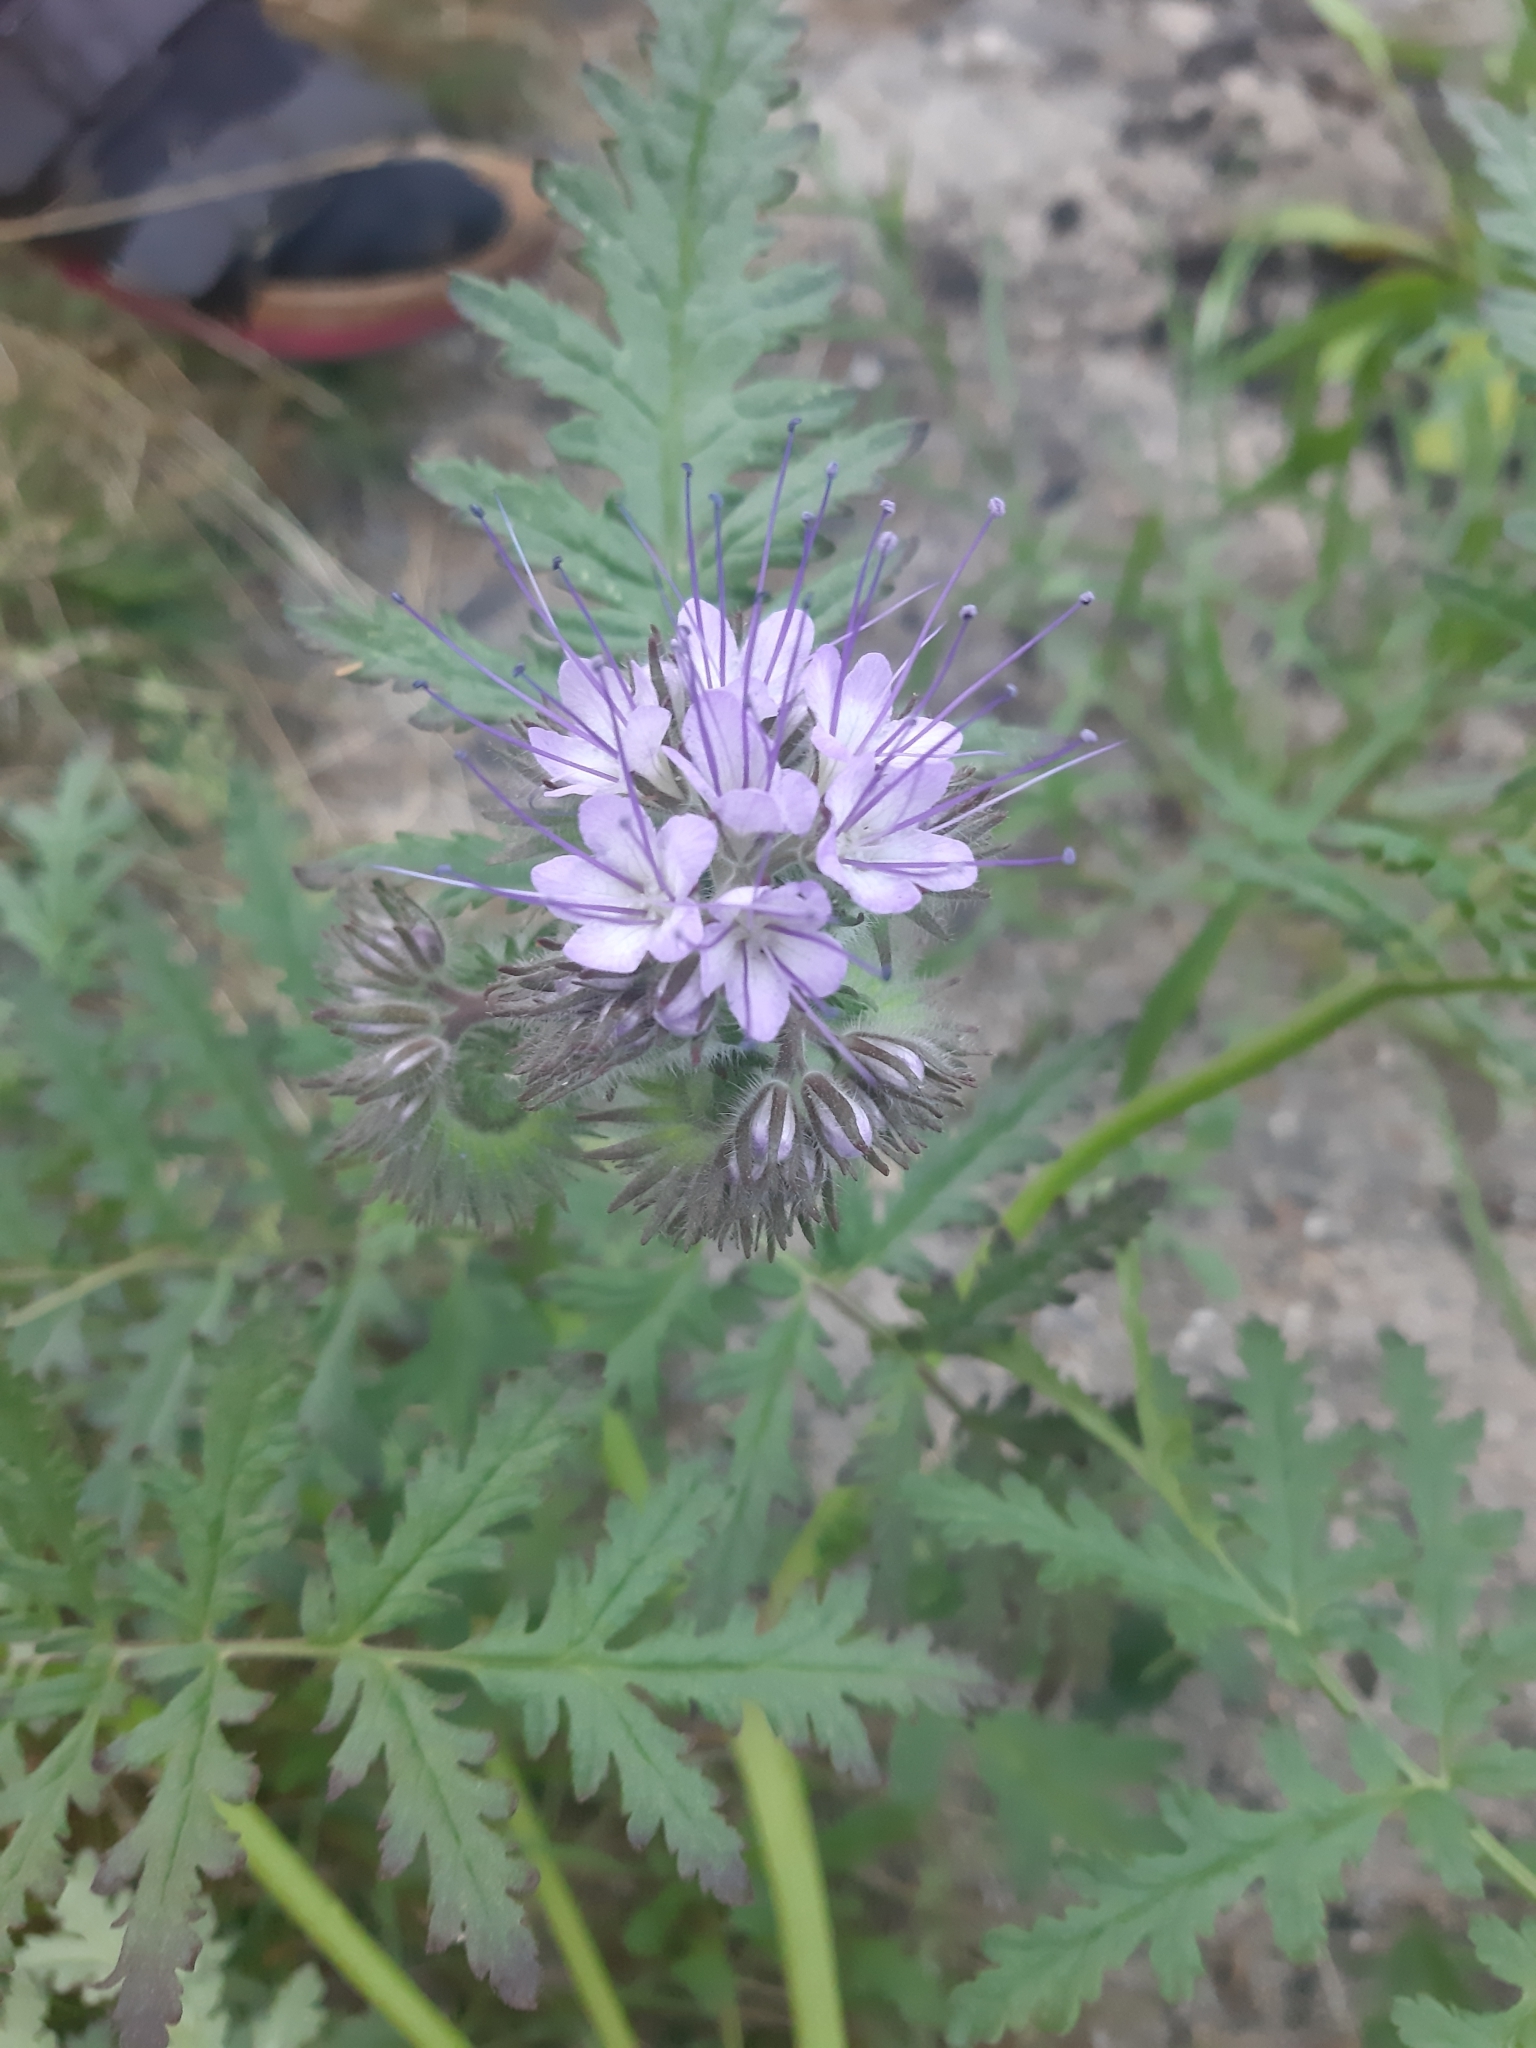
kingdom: Plantae
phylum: Tracheophyta
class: Magnoliopsida
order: Boraginales
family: Hydrophyllaceae
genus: Phacelia
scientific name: Phacelia tanacetifolia
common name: Phacelia
